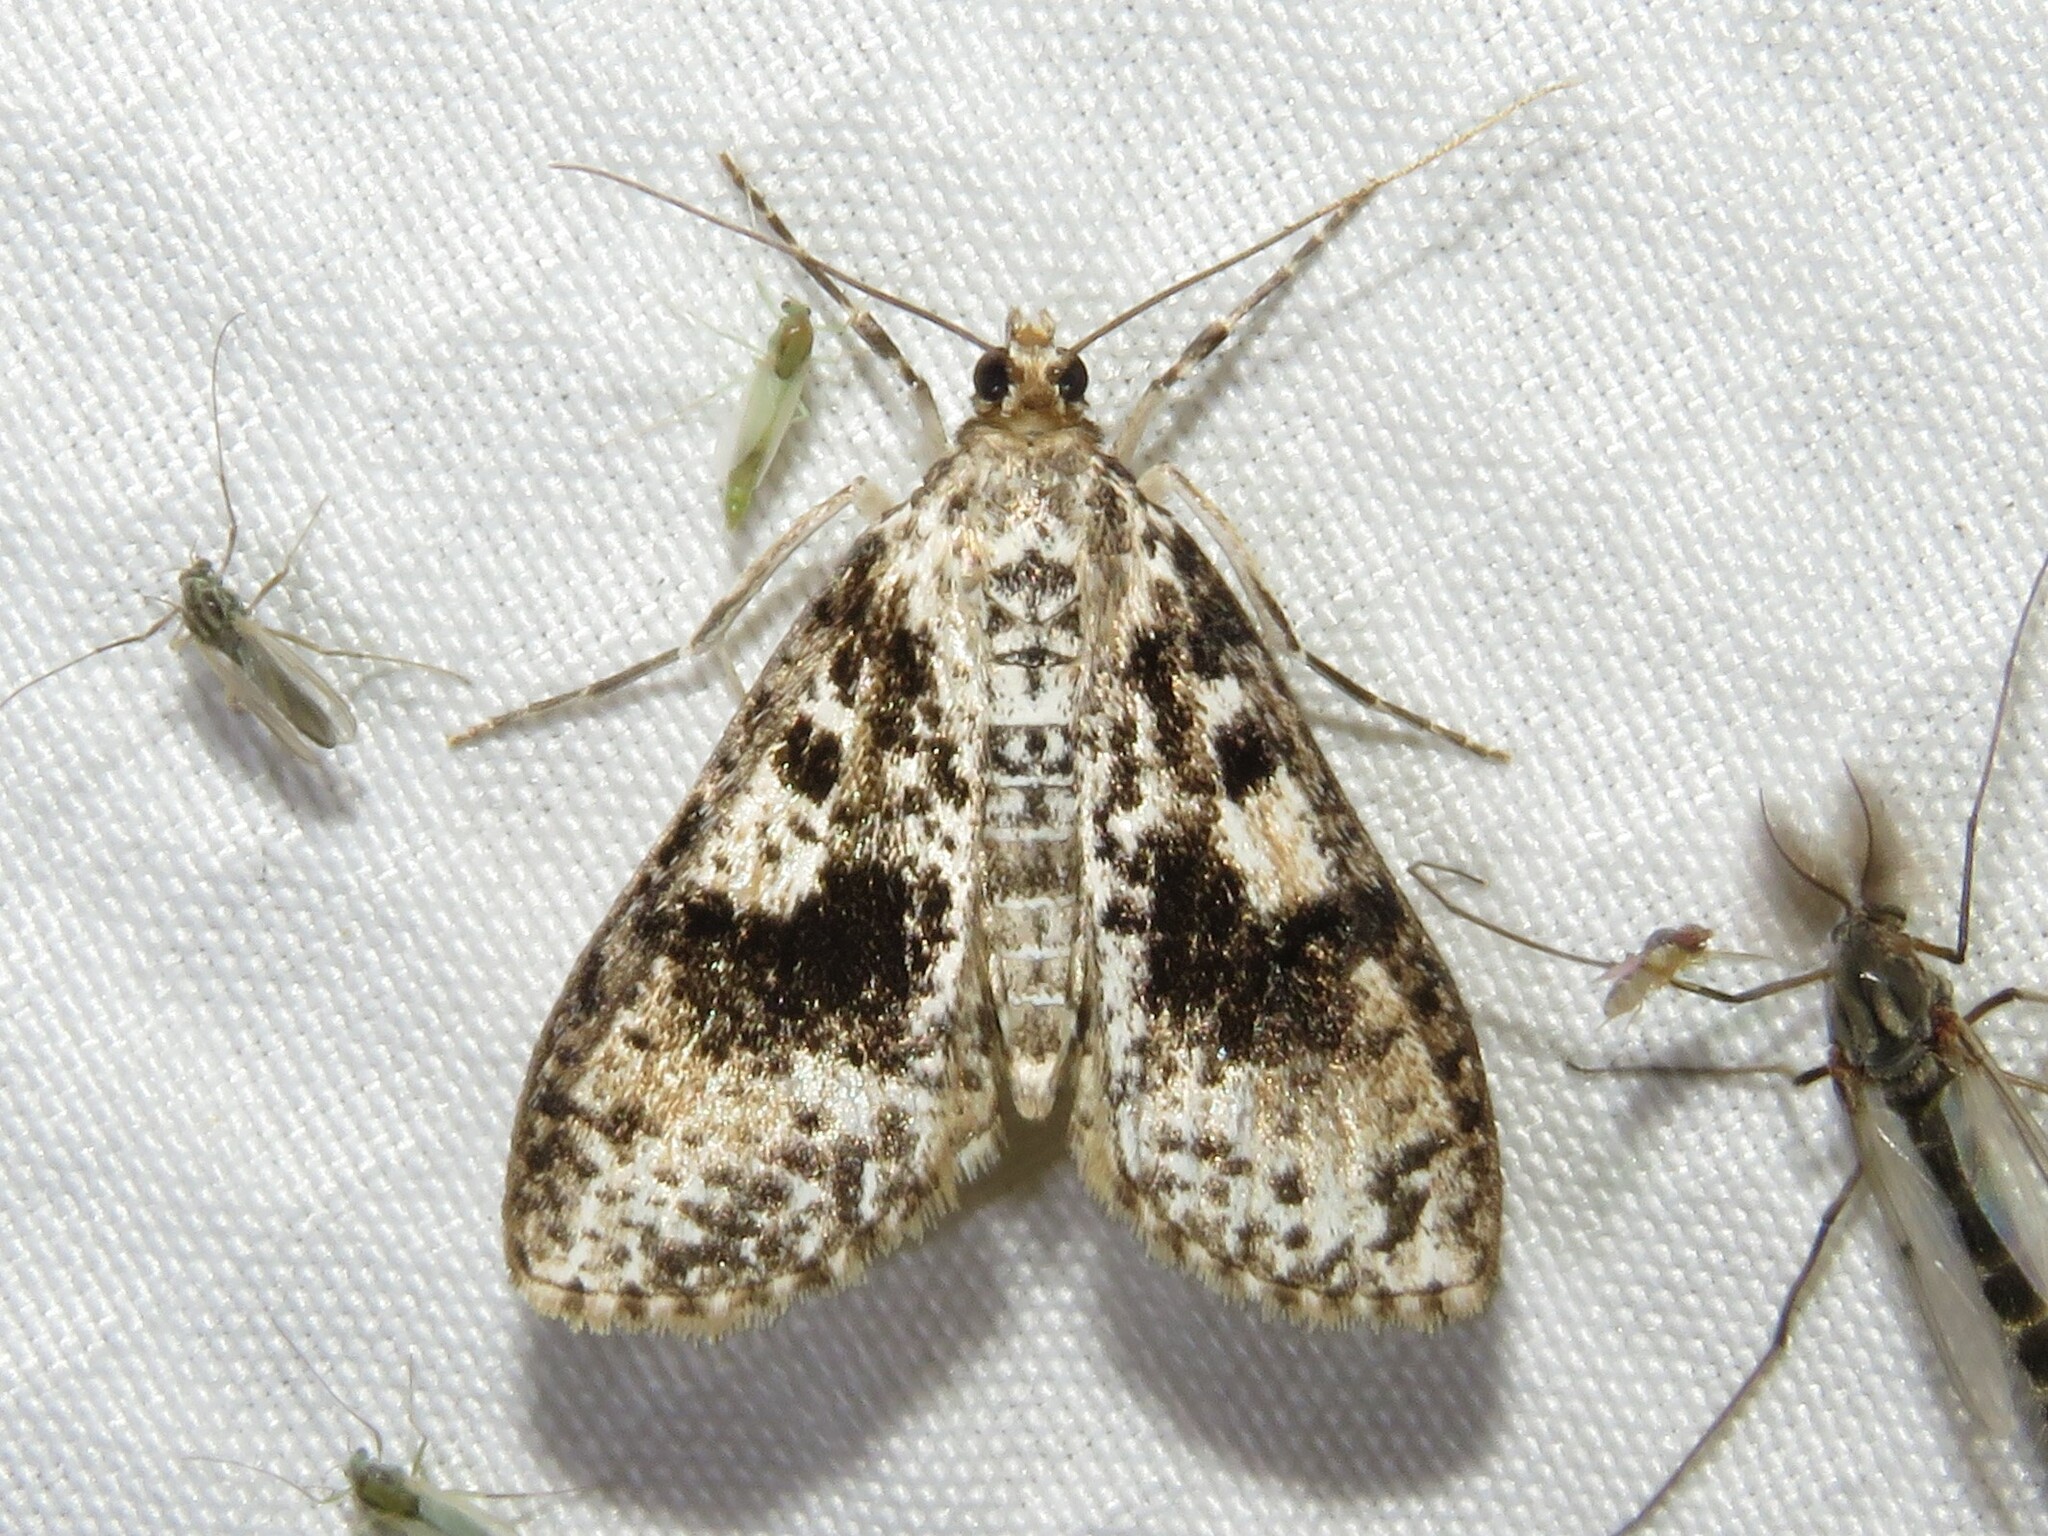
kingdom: Animalia
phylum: Arthropoda
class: Insecta
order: Lepidoptera
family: Crambidae
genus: Palpita
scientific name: Palpita magniferalis
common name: Splendid palpita moth
